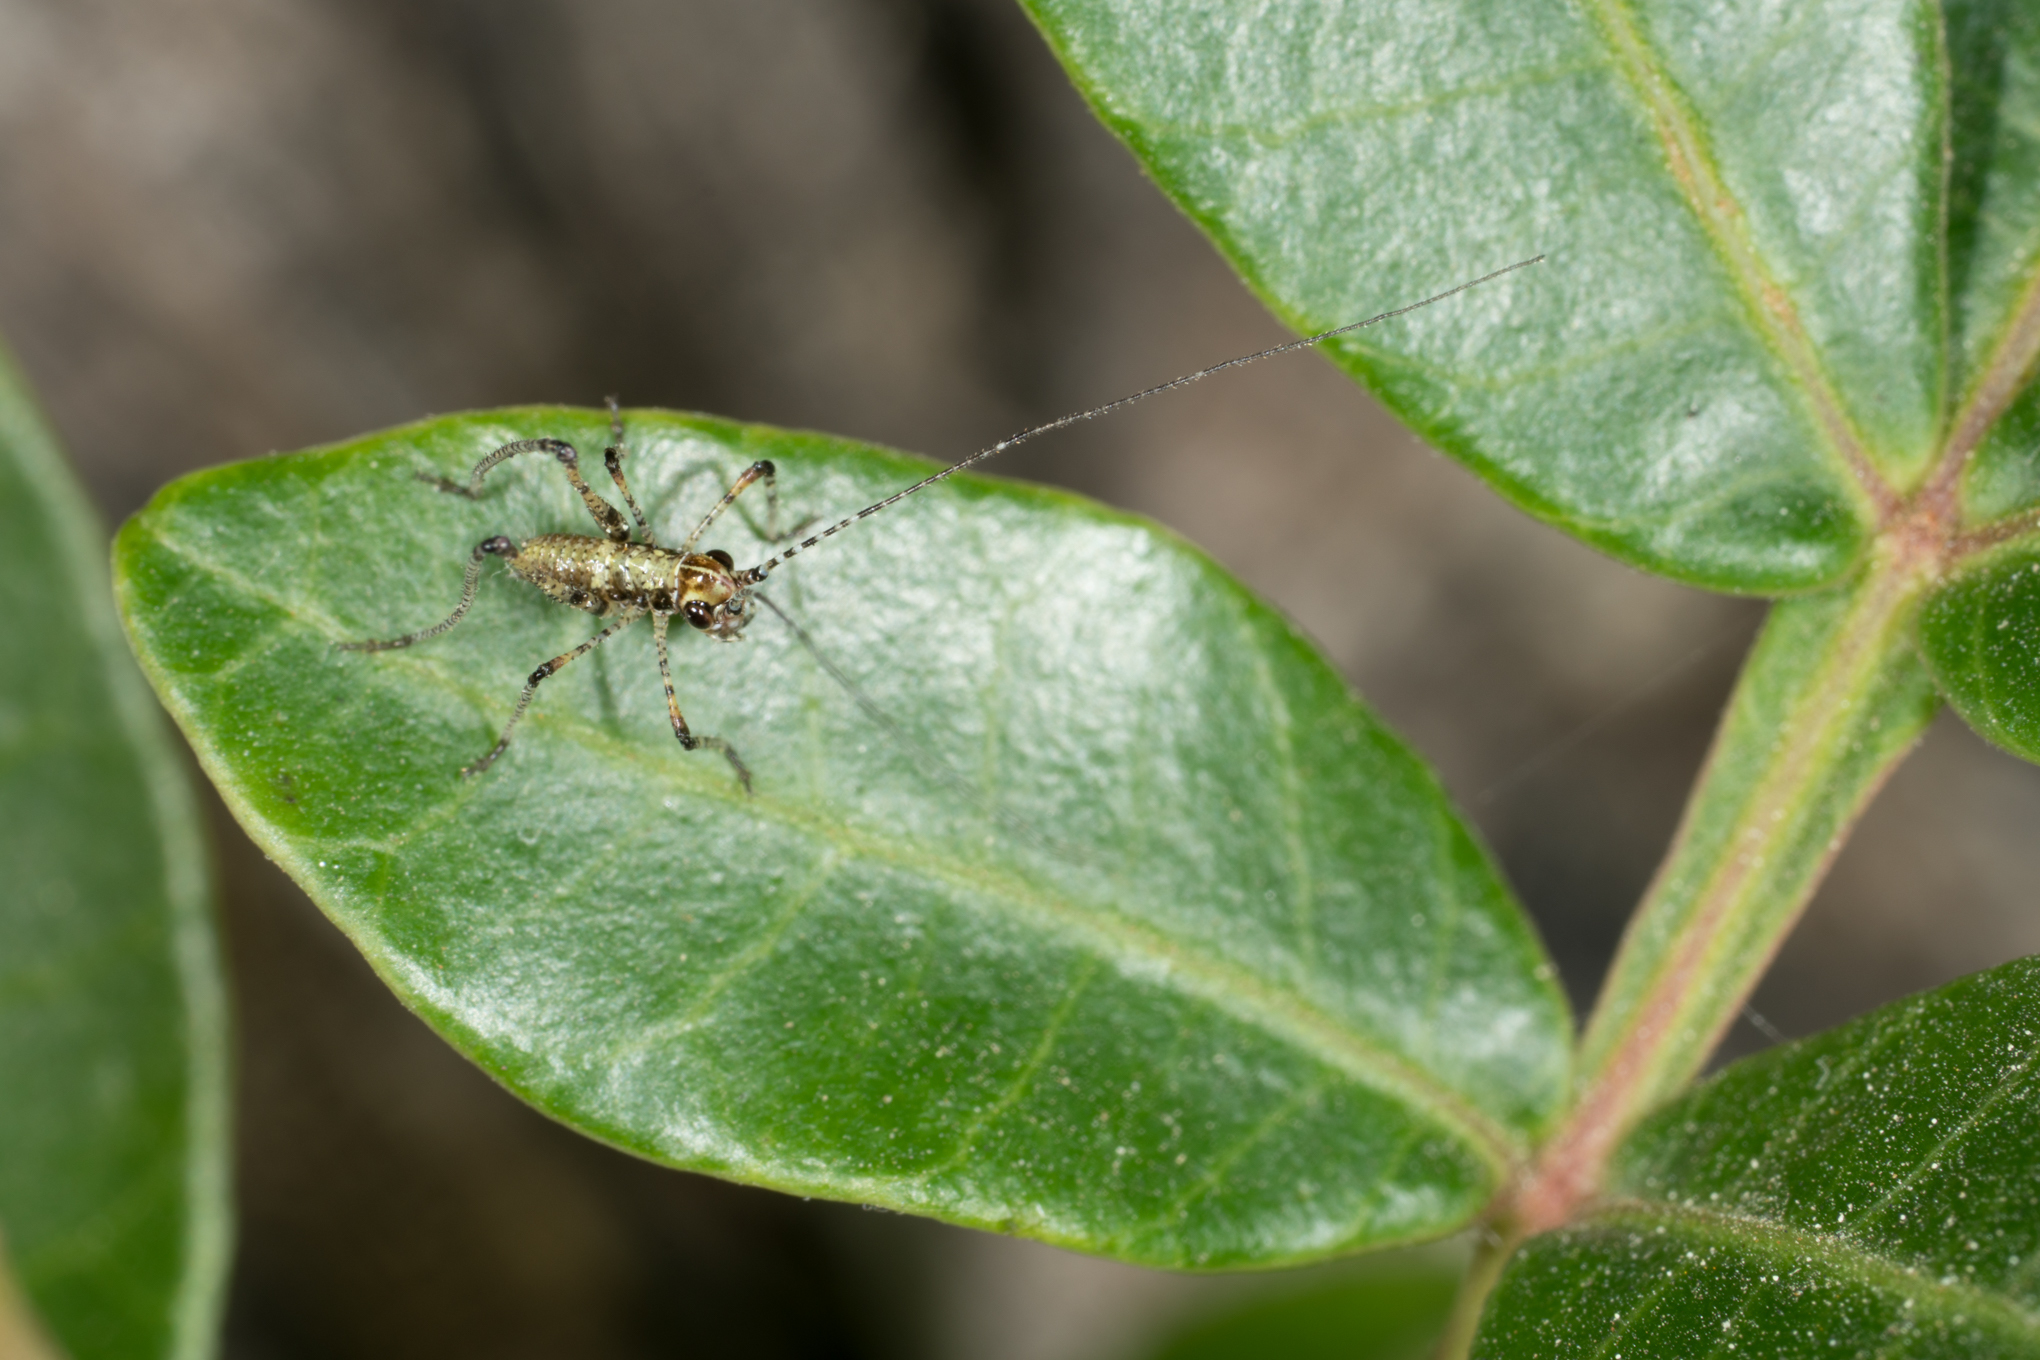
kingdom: Animalia
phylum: Arthropoda
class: Insecta
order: Orthoptera
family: Tettigoniidae
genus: Phaneroptera
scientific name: Phaneroptera nana
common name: Southern sickle bush-cricket
